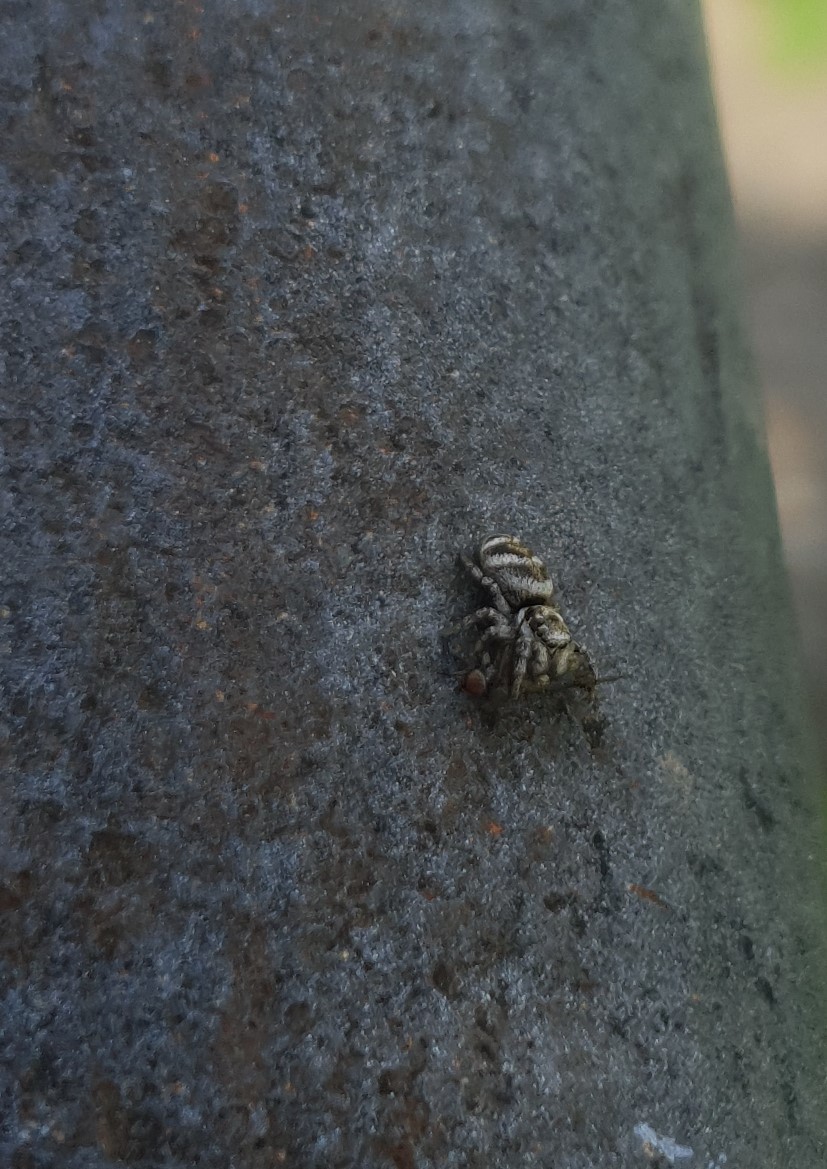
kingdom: Animalia
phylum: Arthropoda
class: Arachnida
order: Araneae
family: Salticidae
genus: Salticus
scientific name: Salticus scenicus
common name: Zebra jumper
